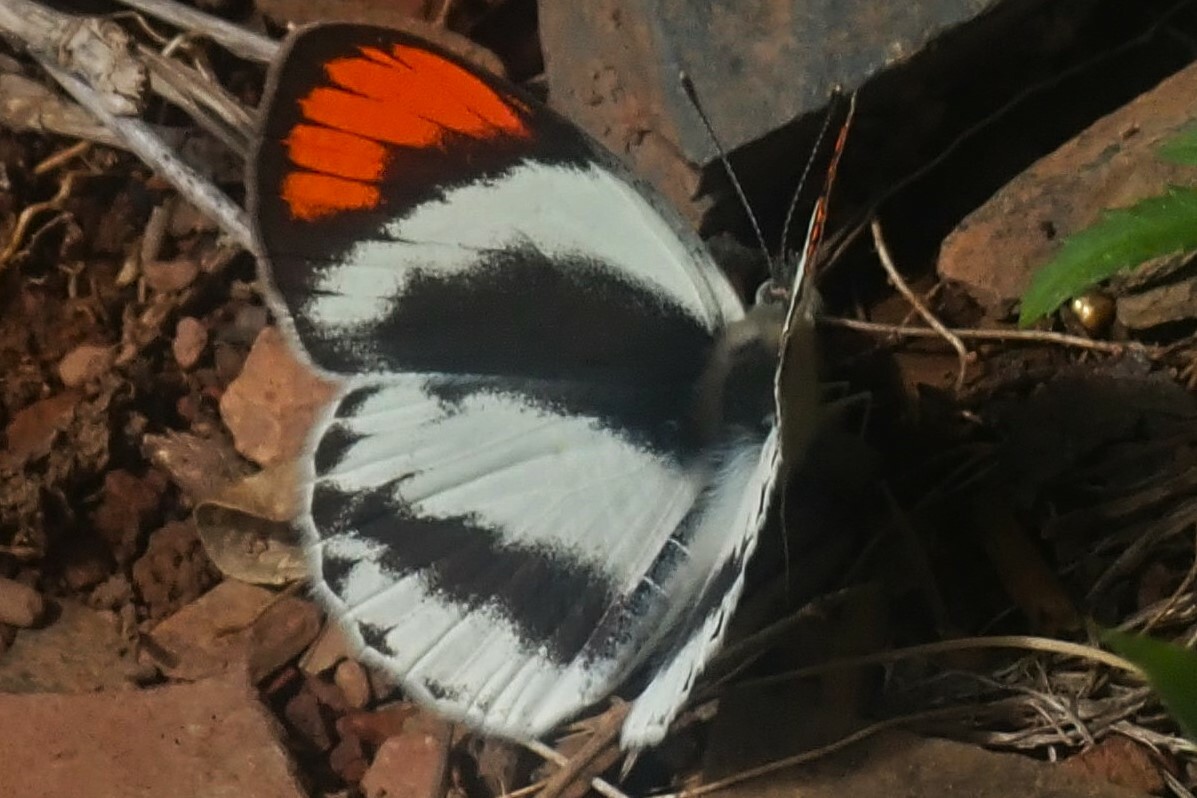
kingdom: Animalia
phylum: Arthropoda
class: Insecta
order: Lepidoptera
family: Pieridae
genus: Colotis
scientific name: Colotis euippe
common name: Round-winged orange tip
